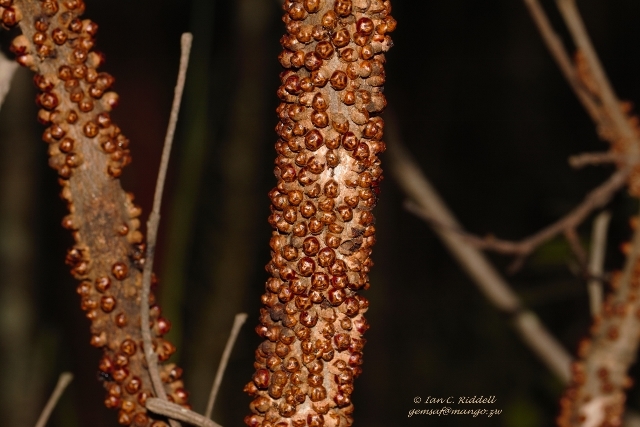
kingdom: Plantae
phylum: Tracheophyta
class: Magnoliopsida
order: Cucurbitales
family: Apodanthaceae
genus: Pilostyles
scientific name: Pilostyles aethiopica
